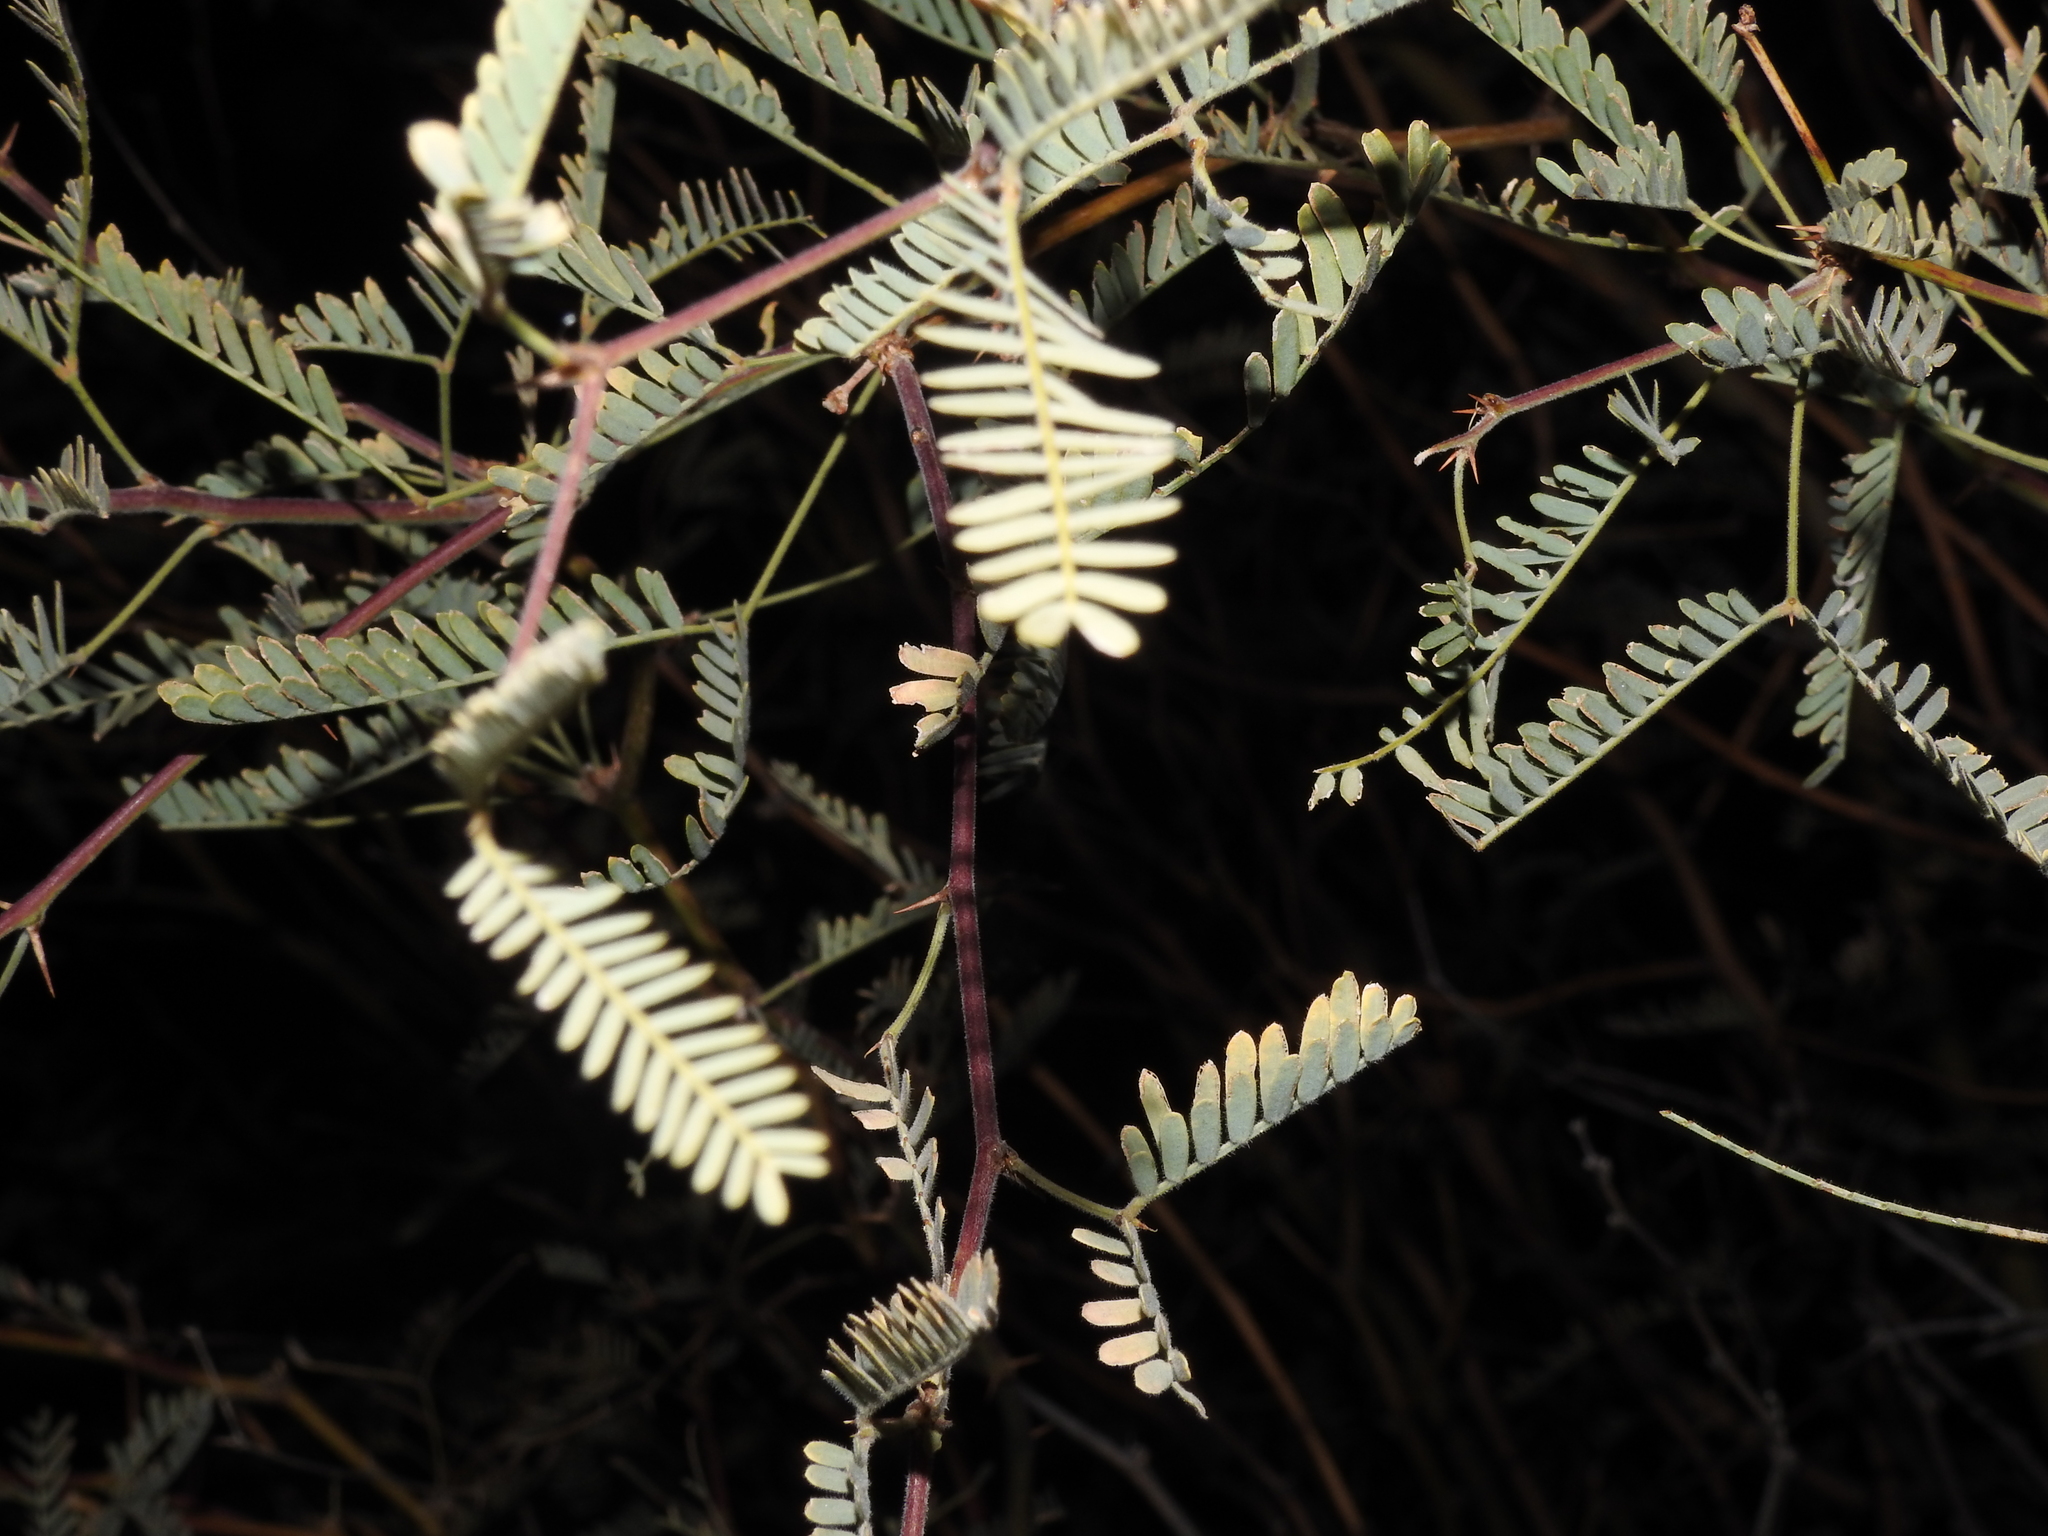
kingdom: Plantae
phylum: Tracheophyta
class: Magnoliopsida
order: Fabales
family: Fabaceae
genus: Prosopis
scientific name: Prosopis velutina
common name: Velvet mesquite
